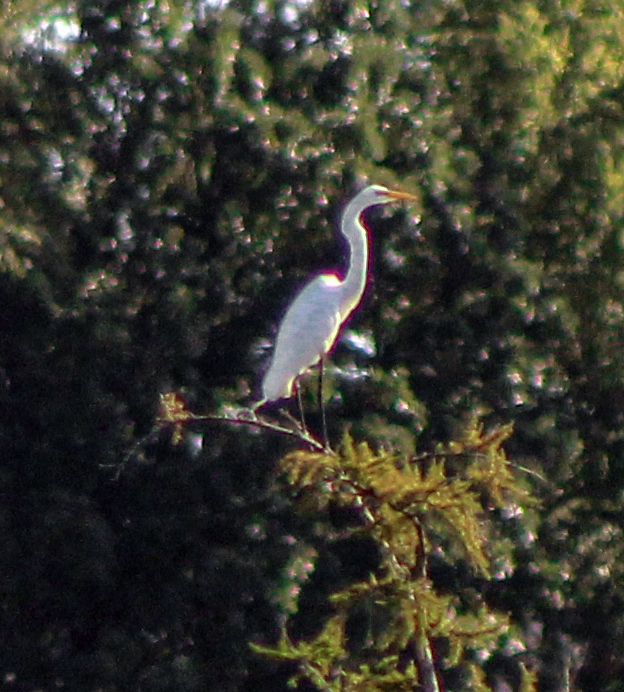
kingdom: Animalia
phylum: Chordata
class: Aves
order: Pelecaniformes
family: Ardeidae
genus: Ardea
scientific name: Ardea alba
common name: Great egret
